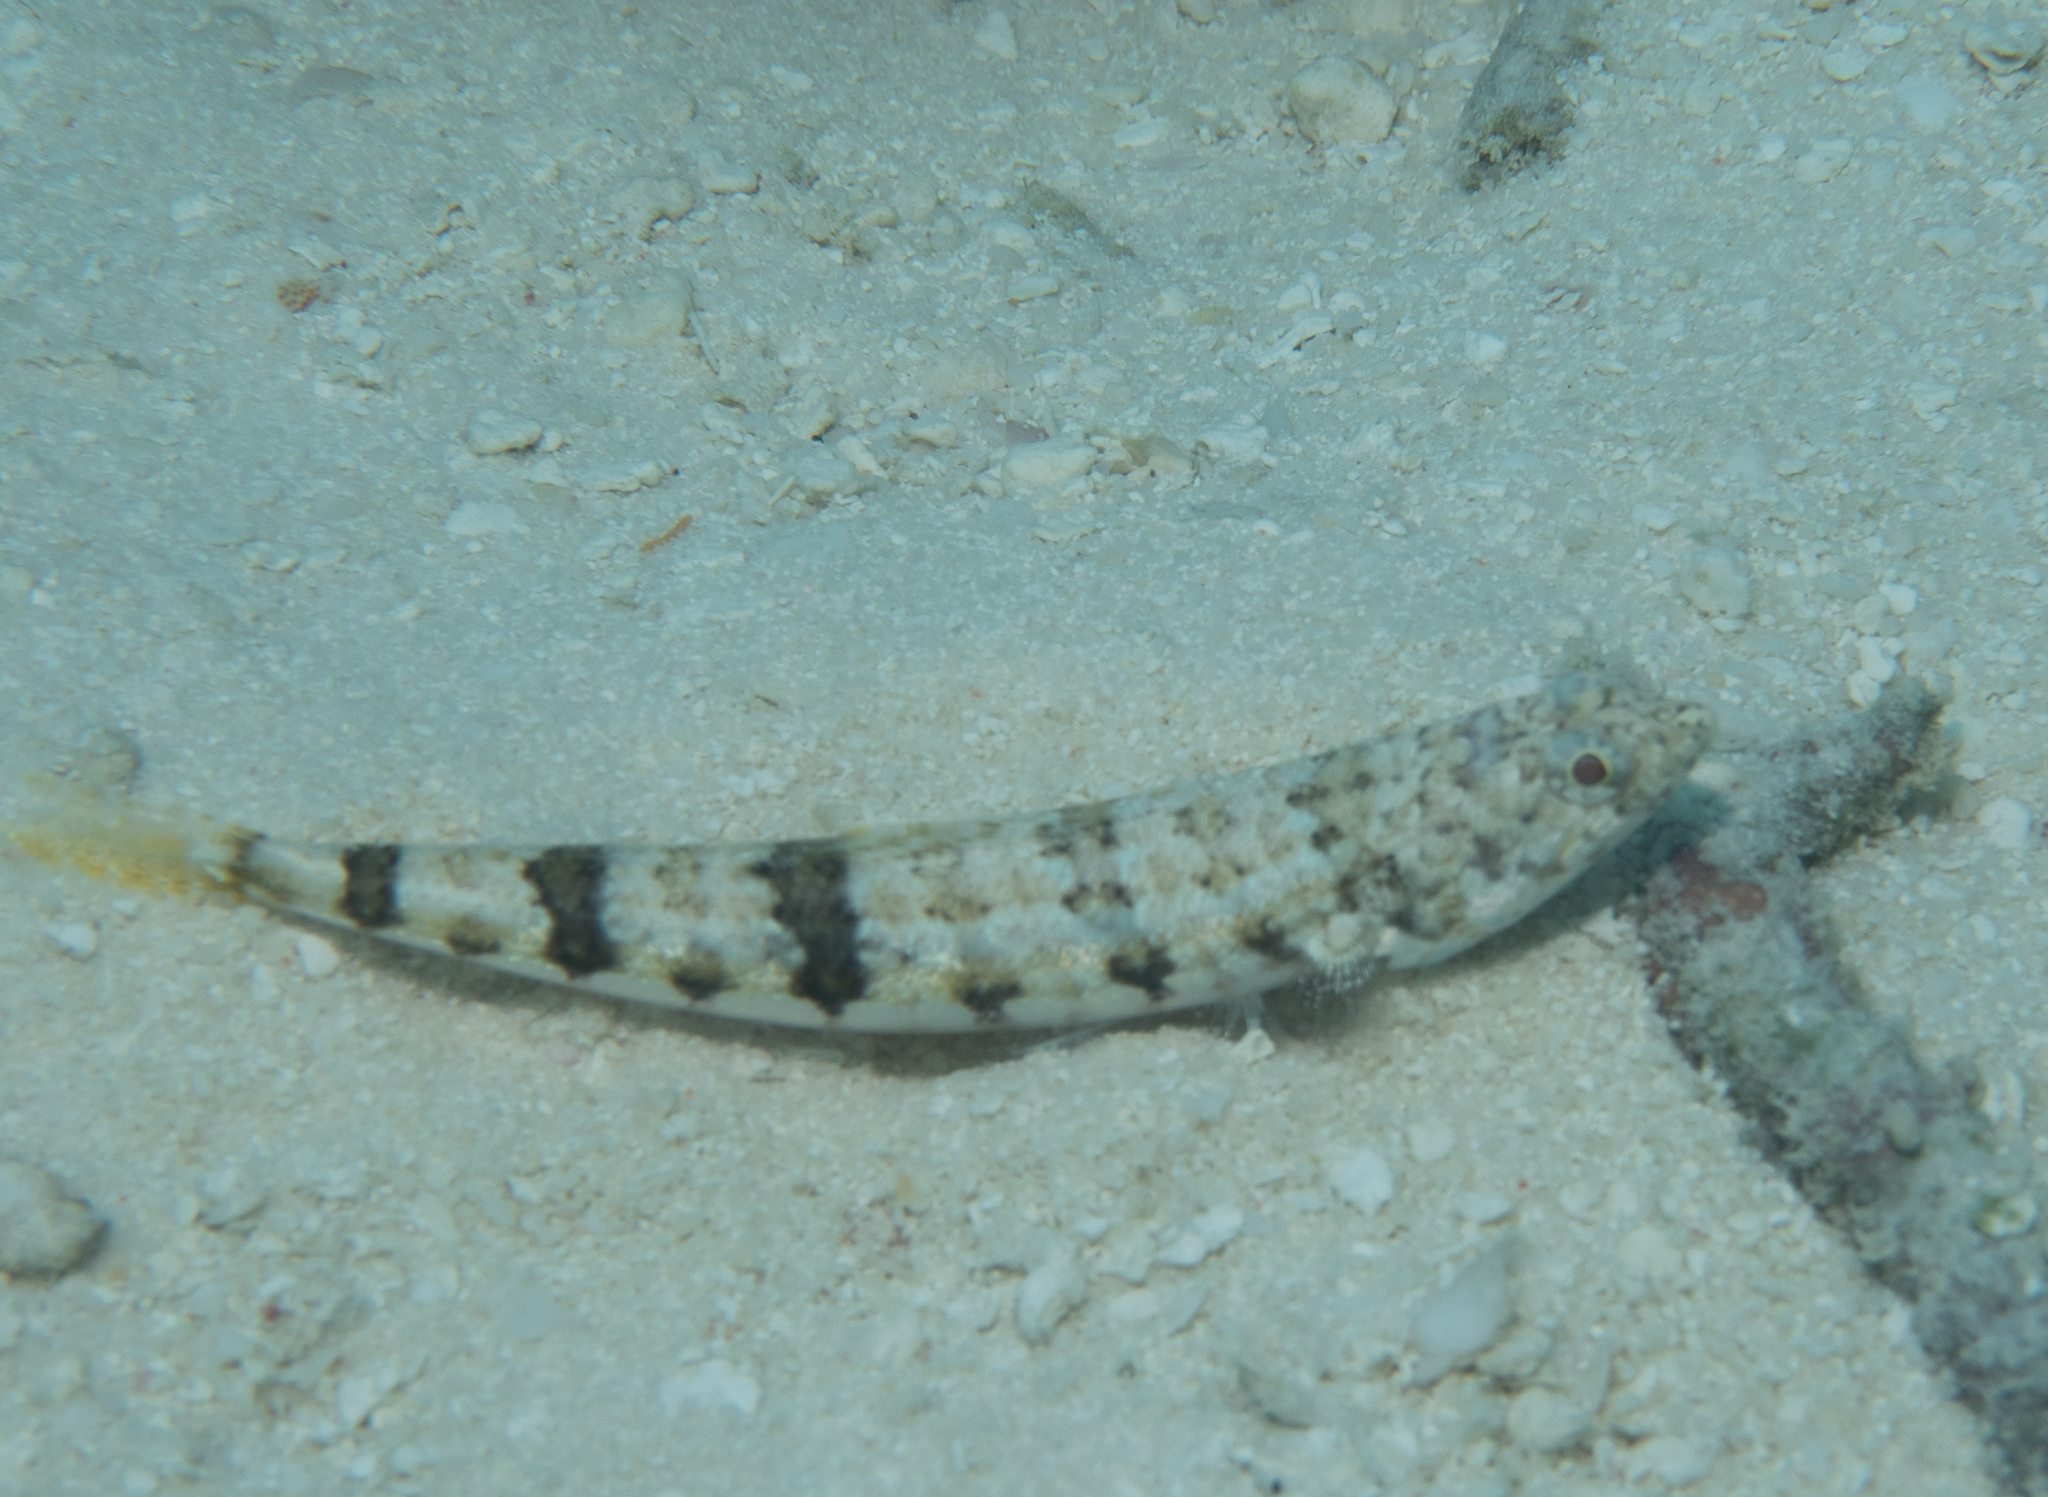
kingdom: Animalia
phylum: Chordata
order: Aulopiformes
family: Synodontidae
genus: Synodus
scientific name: Synodus dermatogenys
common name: Banded lizardfish
